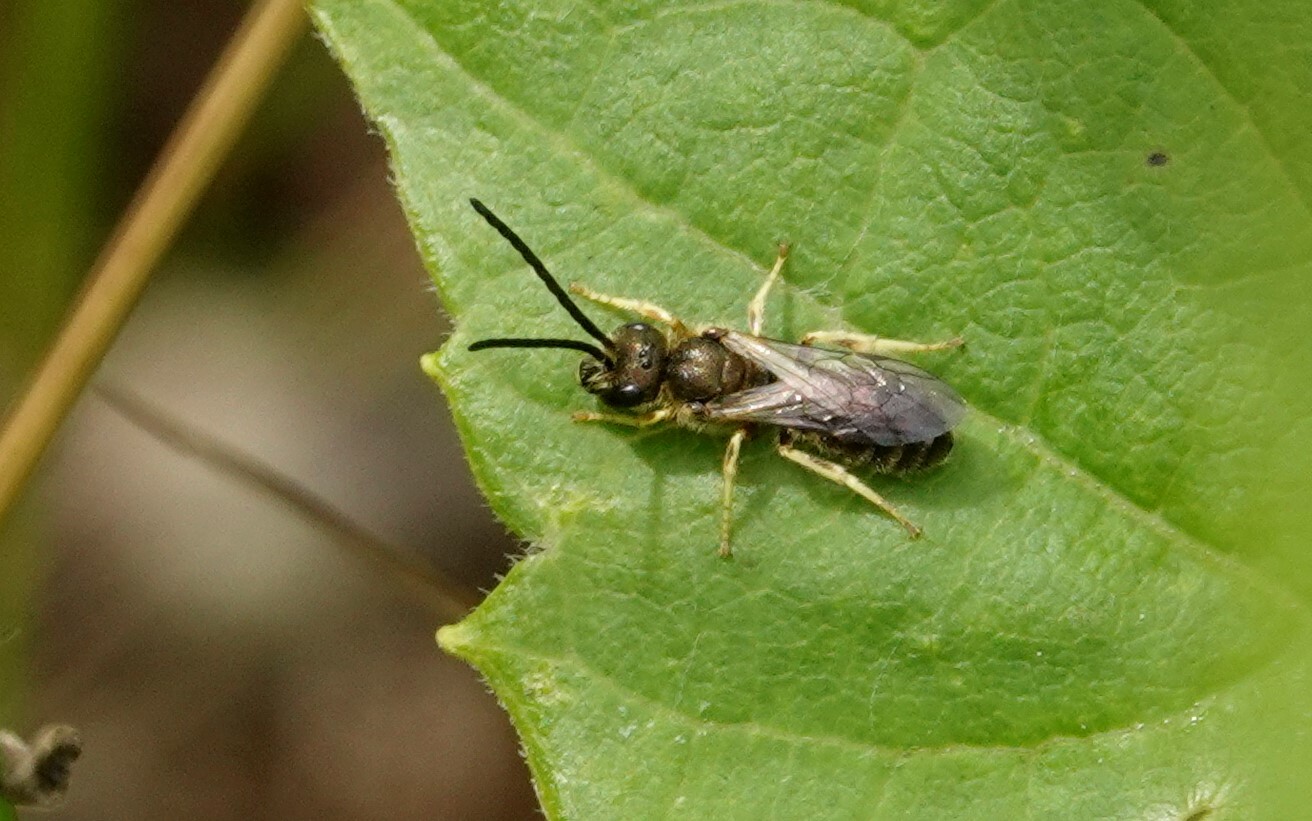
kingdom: Animalia
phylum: Arthropoda
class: Insecta
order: Hymenoptera
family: Halictidae
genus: Halictus
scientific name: Halictus confusus
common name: Southern bronze furrow bee
